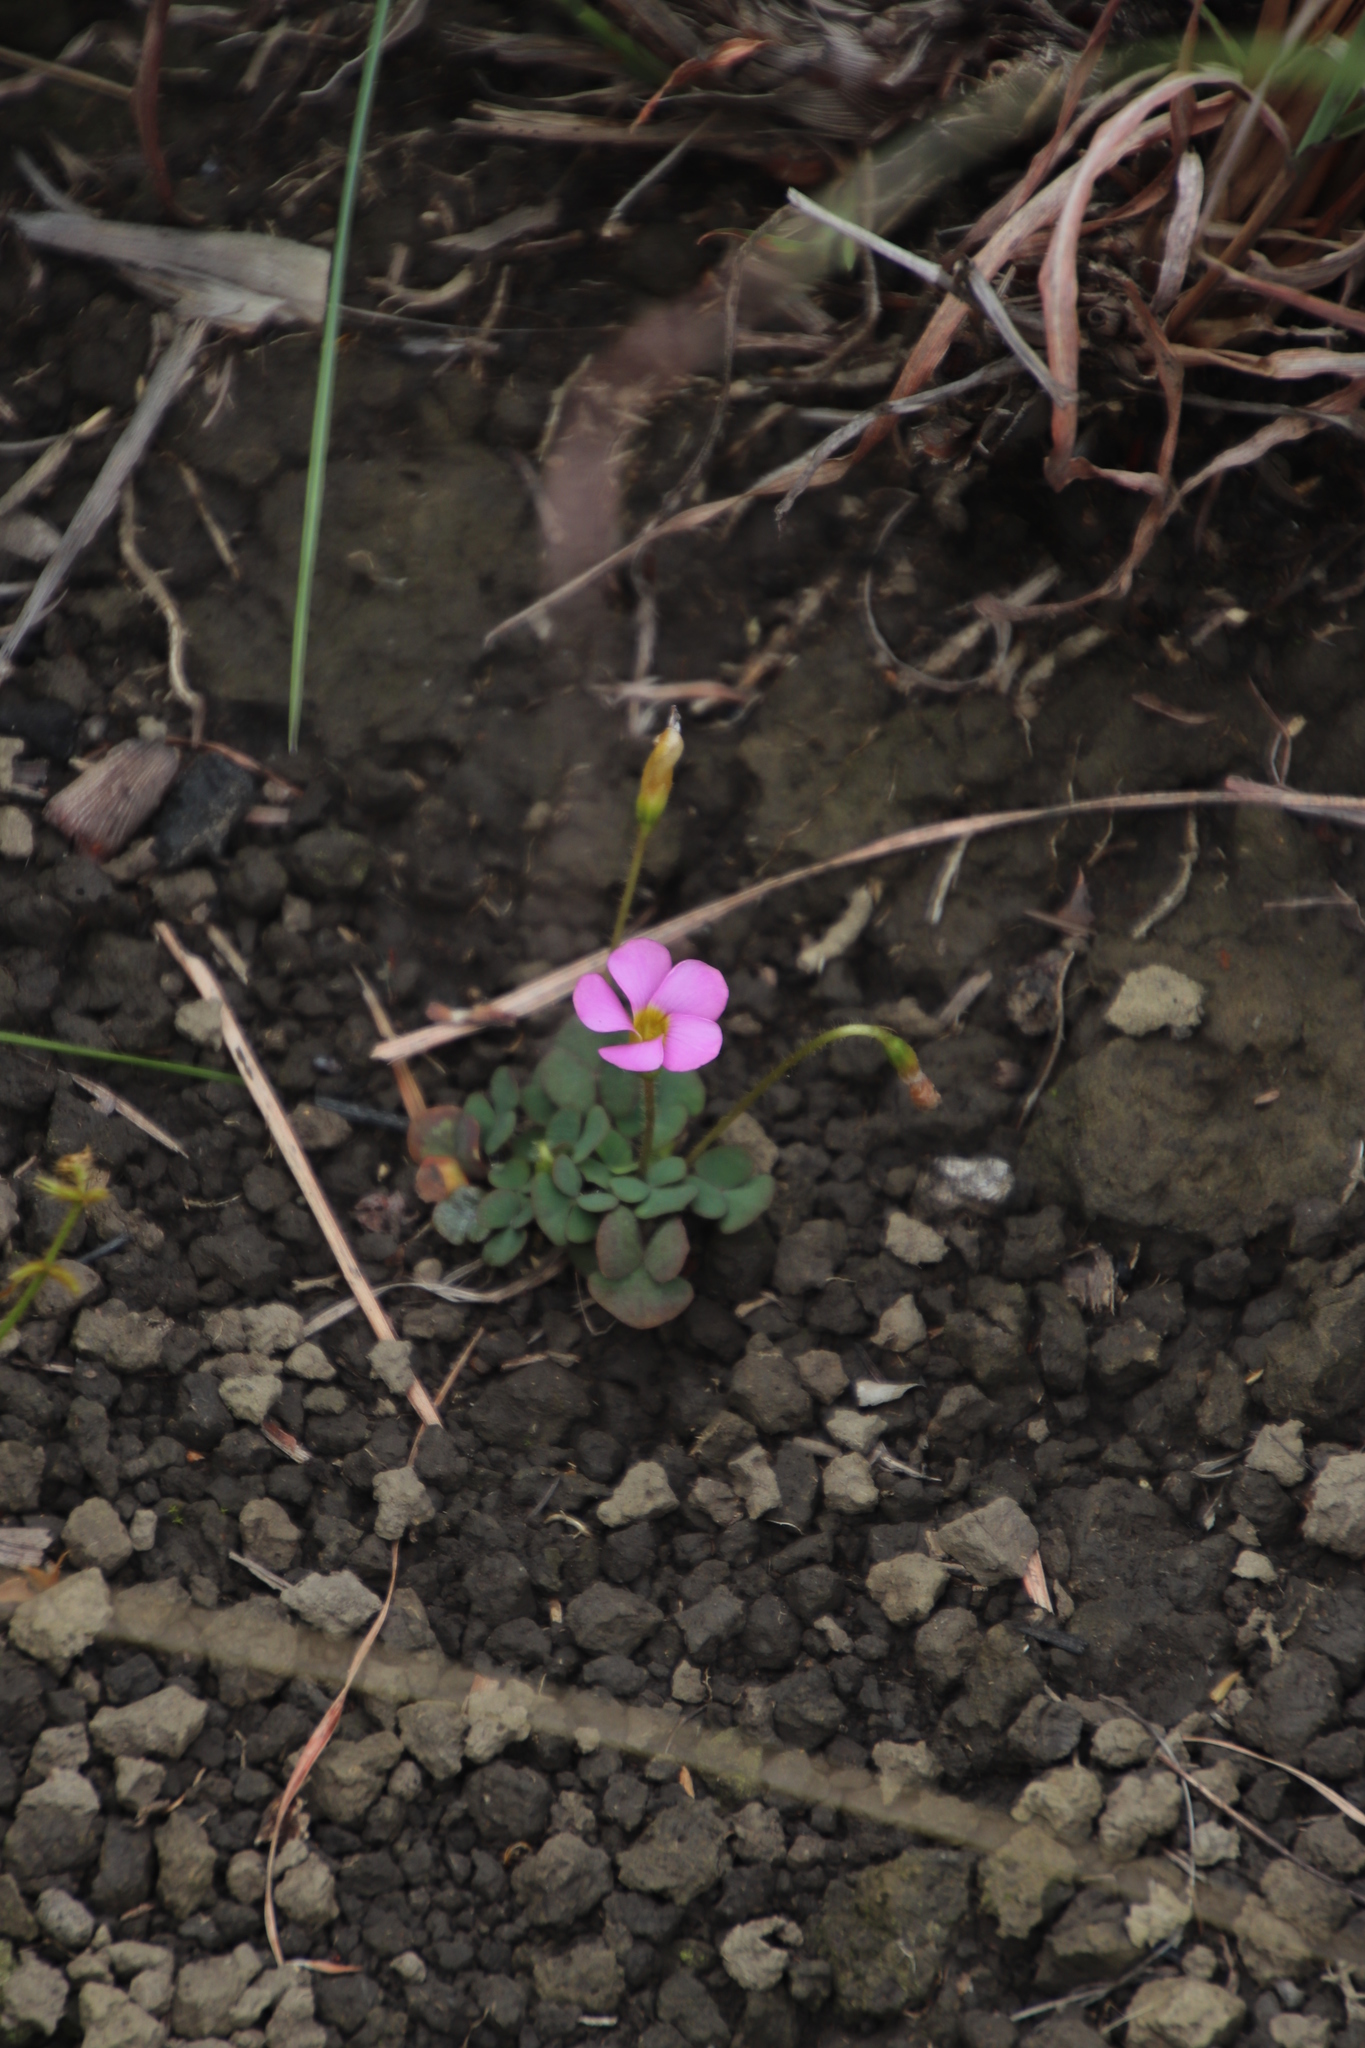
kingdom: Plantae
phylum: Tracheophyta
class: Magnoliopsida
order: Oxalidales
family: Oxalidaceae
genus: Oxalis
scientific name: Oxalis obliquifolia
